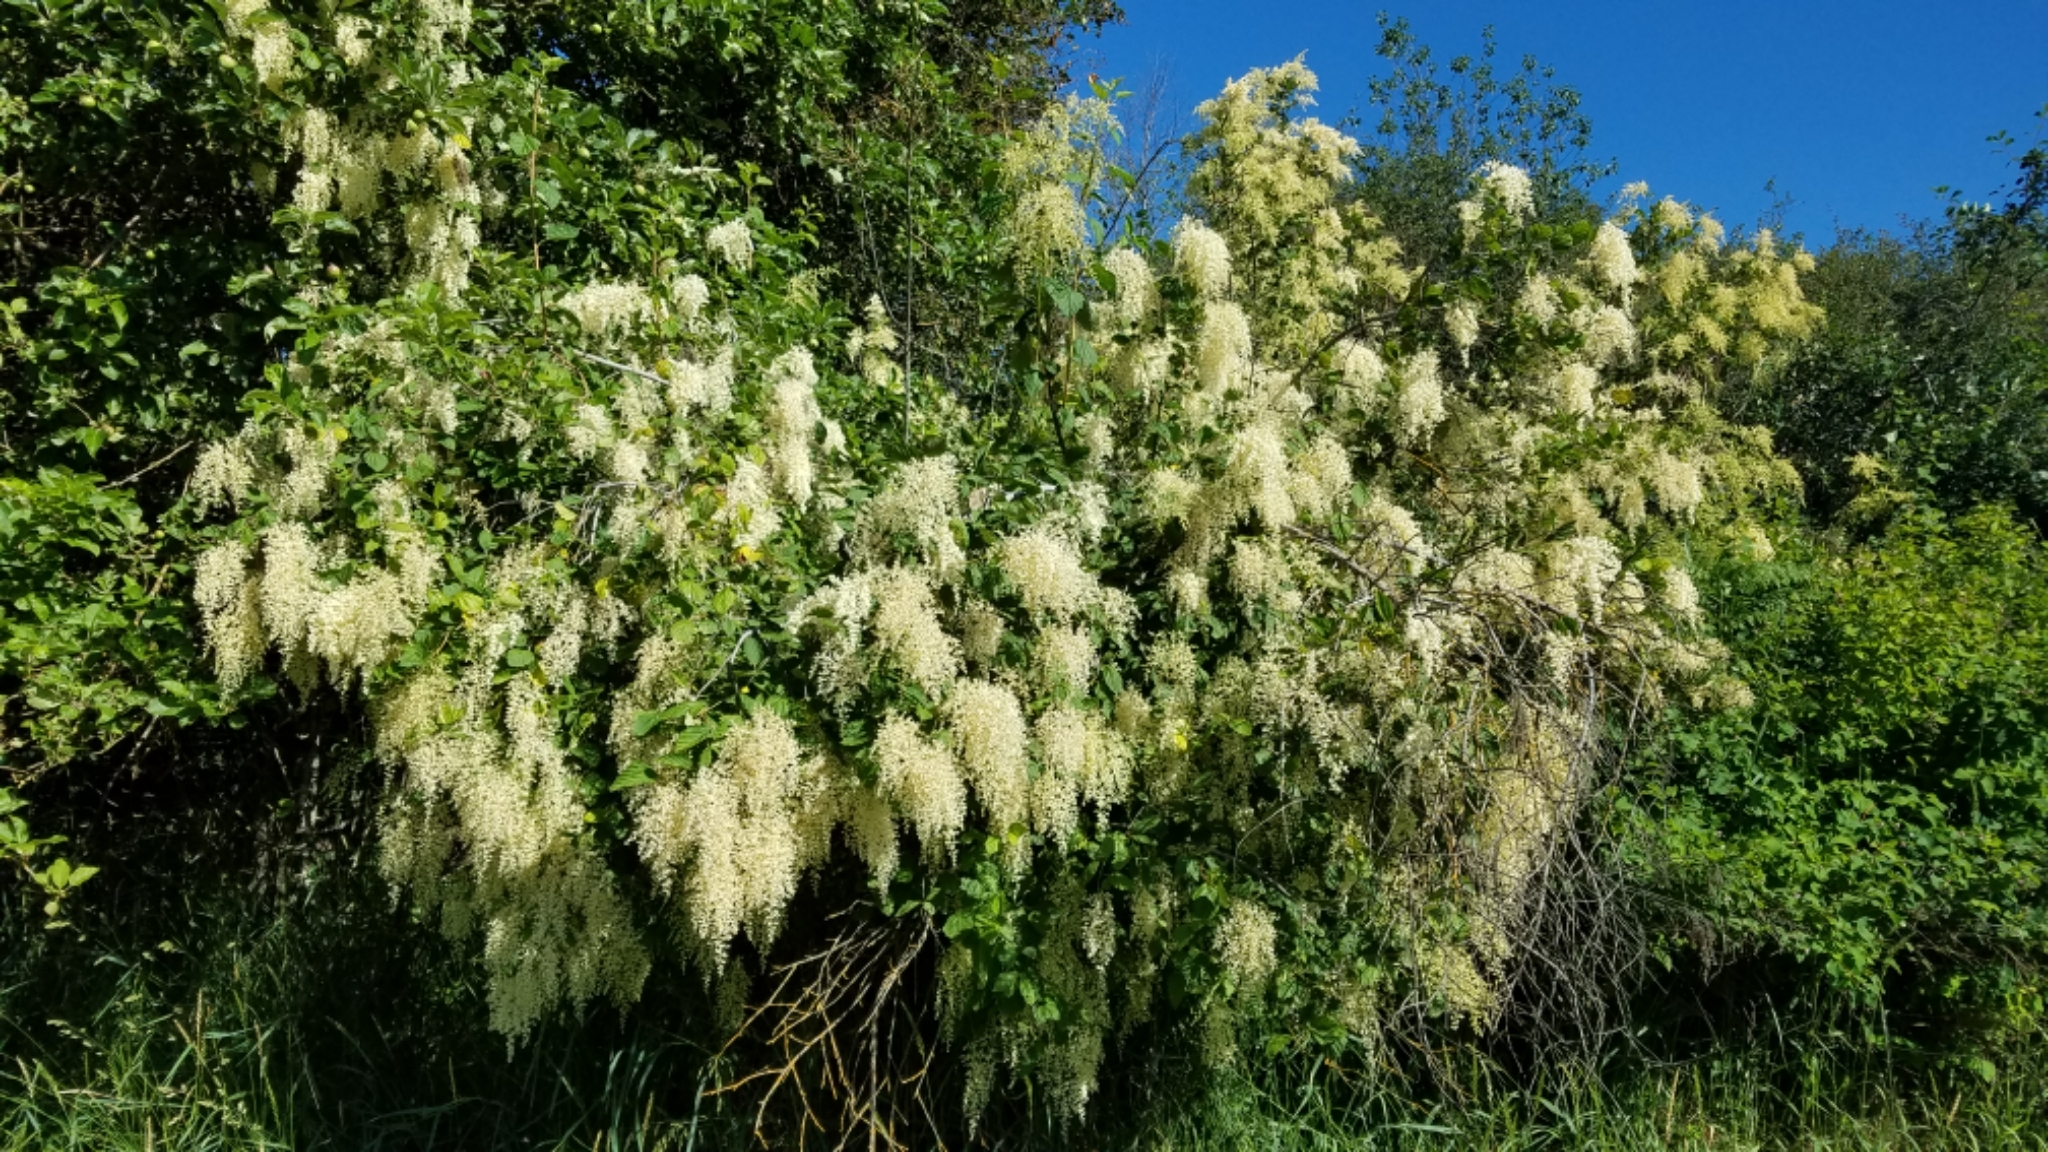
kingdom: Plantae
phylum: Tracheophyta
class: Magnoliopsida
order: Rosales
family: Rosaceae
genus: Holodiscus
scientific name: Holodiscus discolor
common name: Oceanspray
